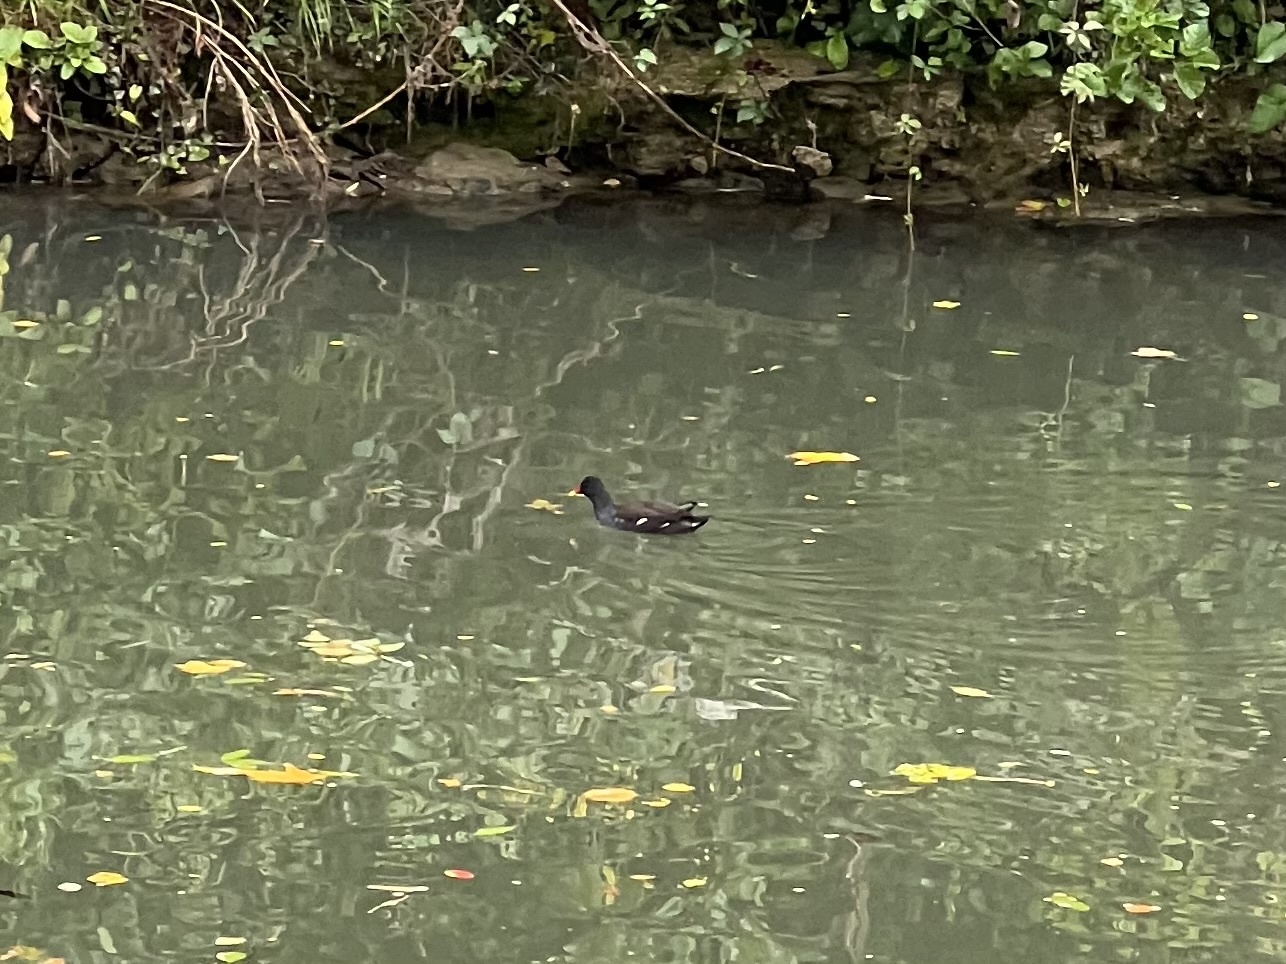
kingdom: Animalia
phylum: Chordata
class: Aves
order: Gruiformes
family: Rallidae
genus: Gallinula
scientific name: Gallinula chloropus
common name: Common moorhen
